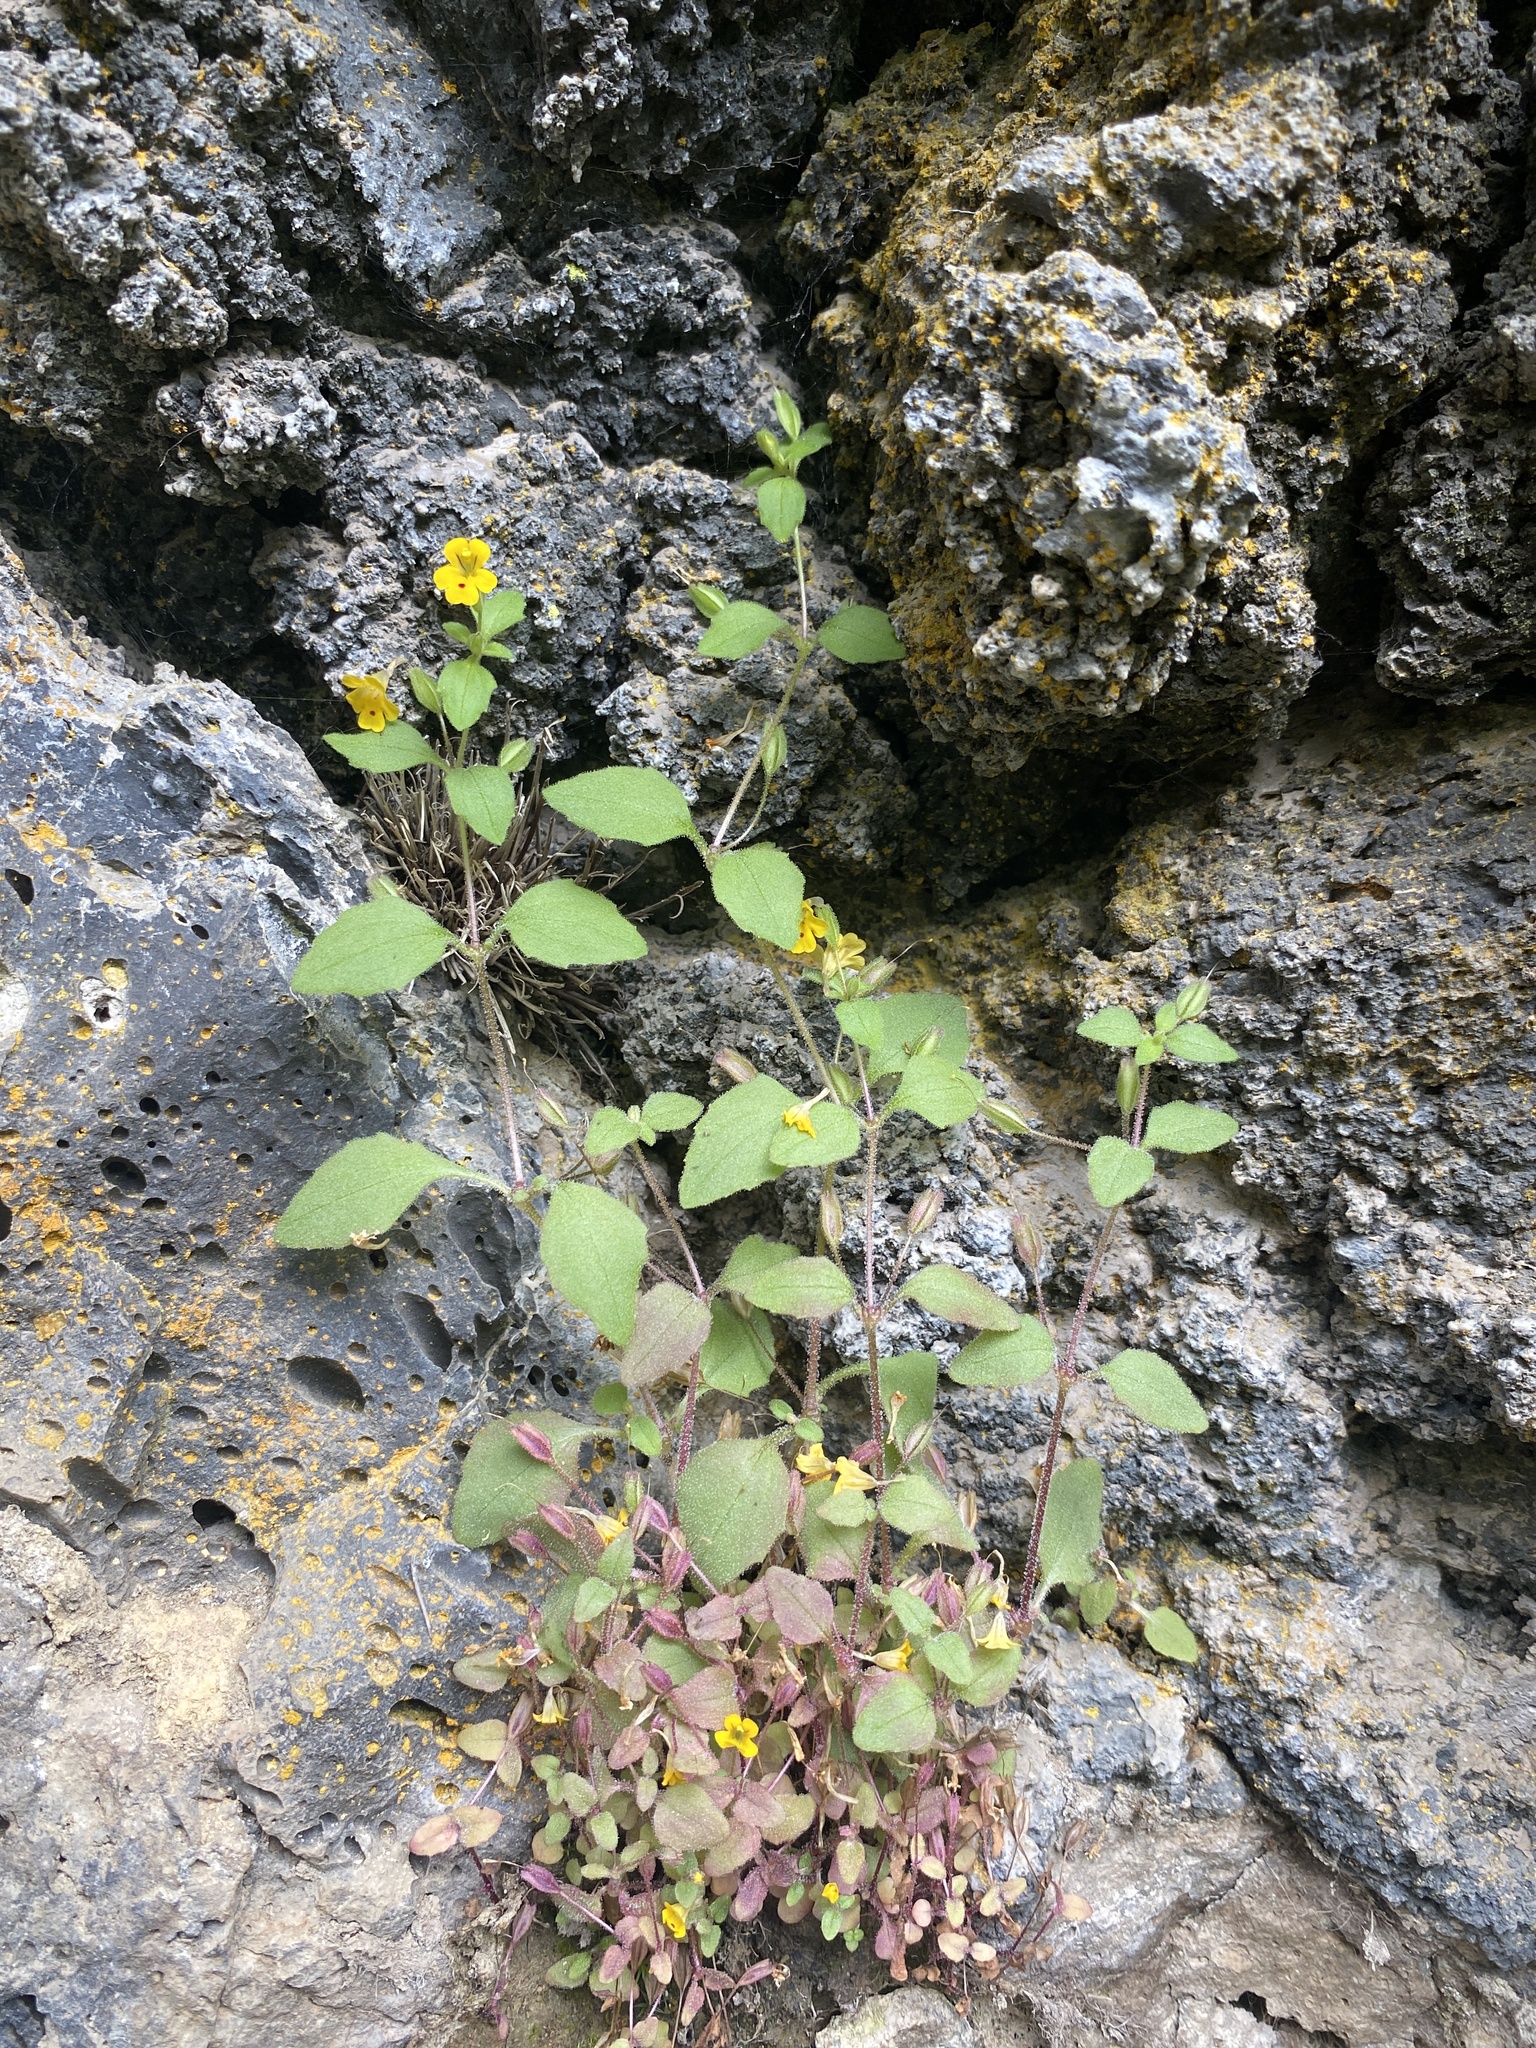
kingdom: Plantae
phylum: Tracheophyta
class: Magnoliopsida
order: Lamiales
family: Phrymaceae
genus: Erythranthe
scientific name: Erythranthe alsinoides
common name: Chickweed monkeyflower
